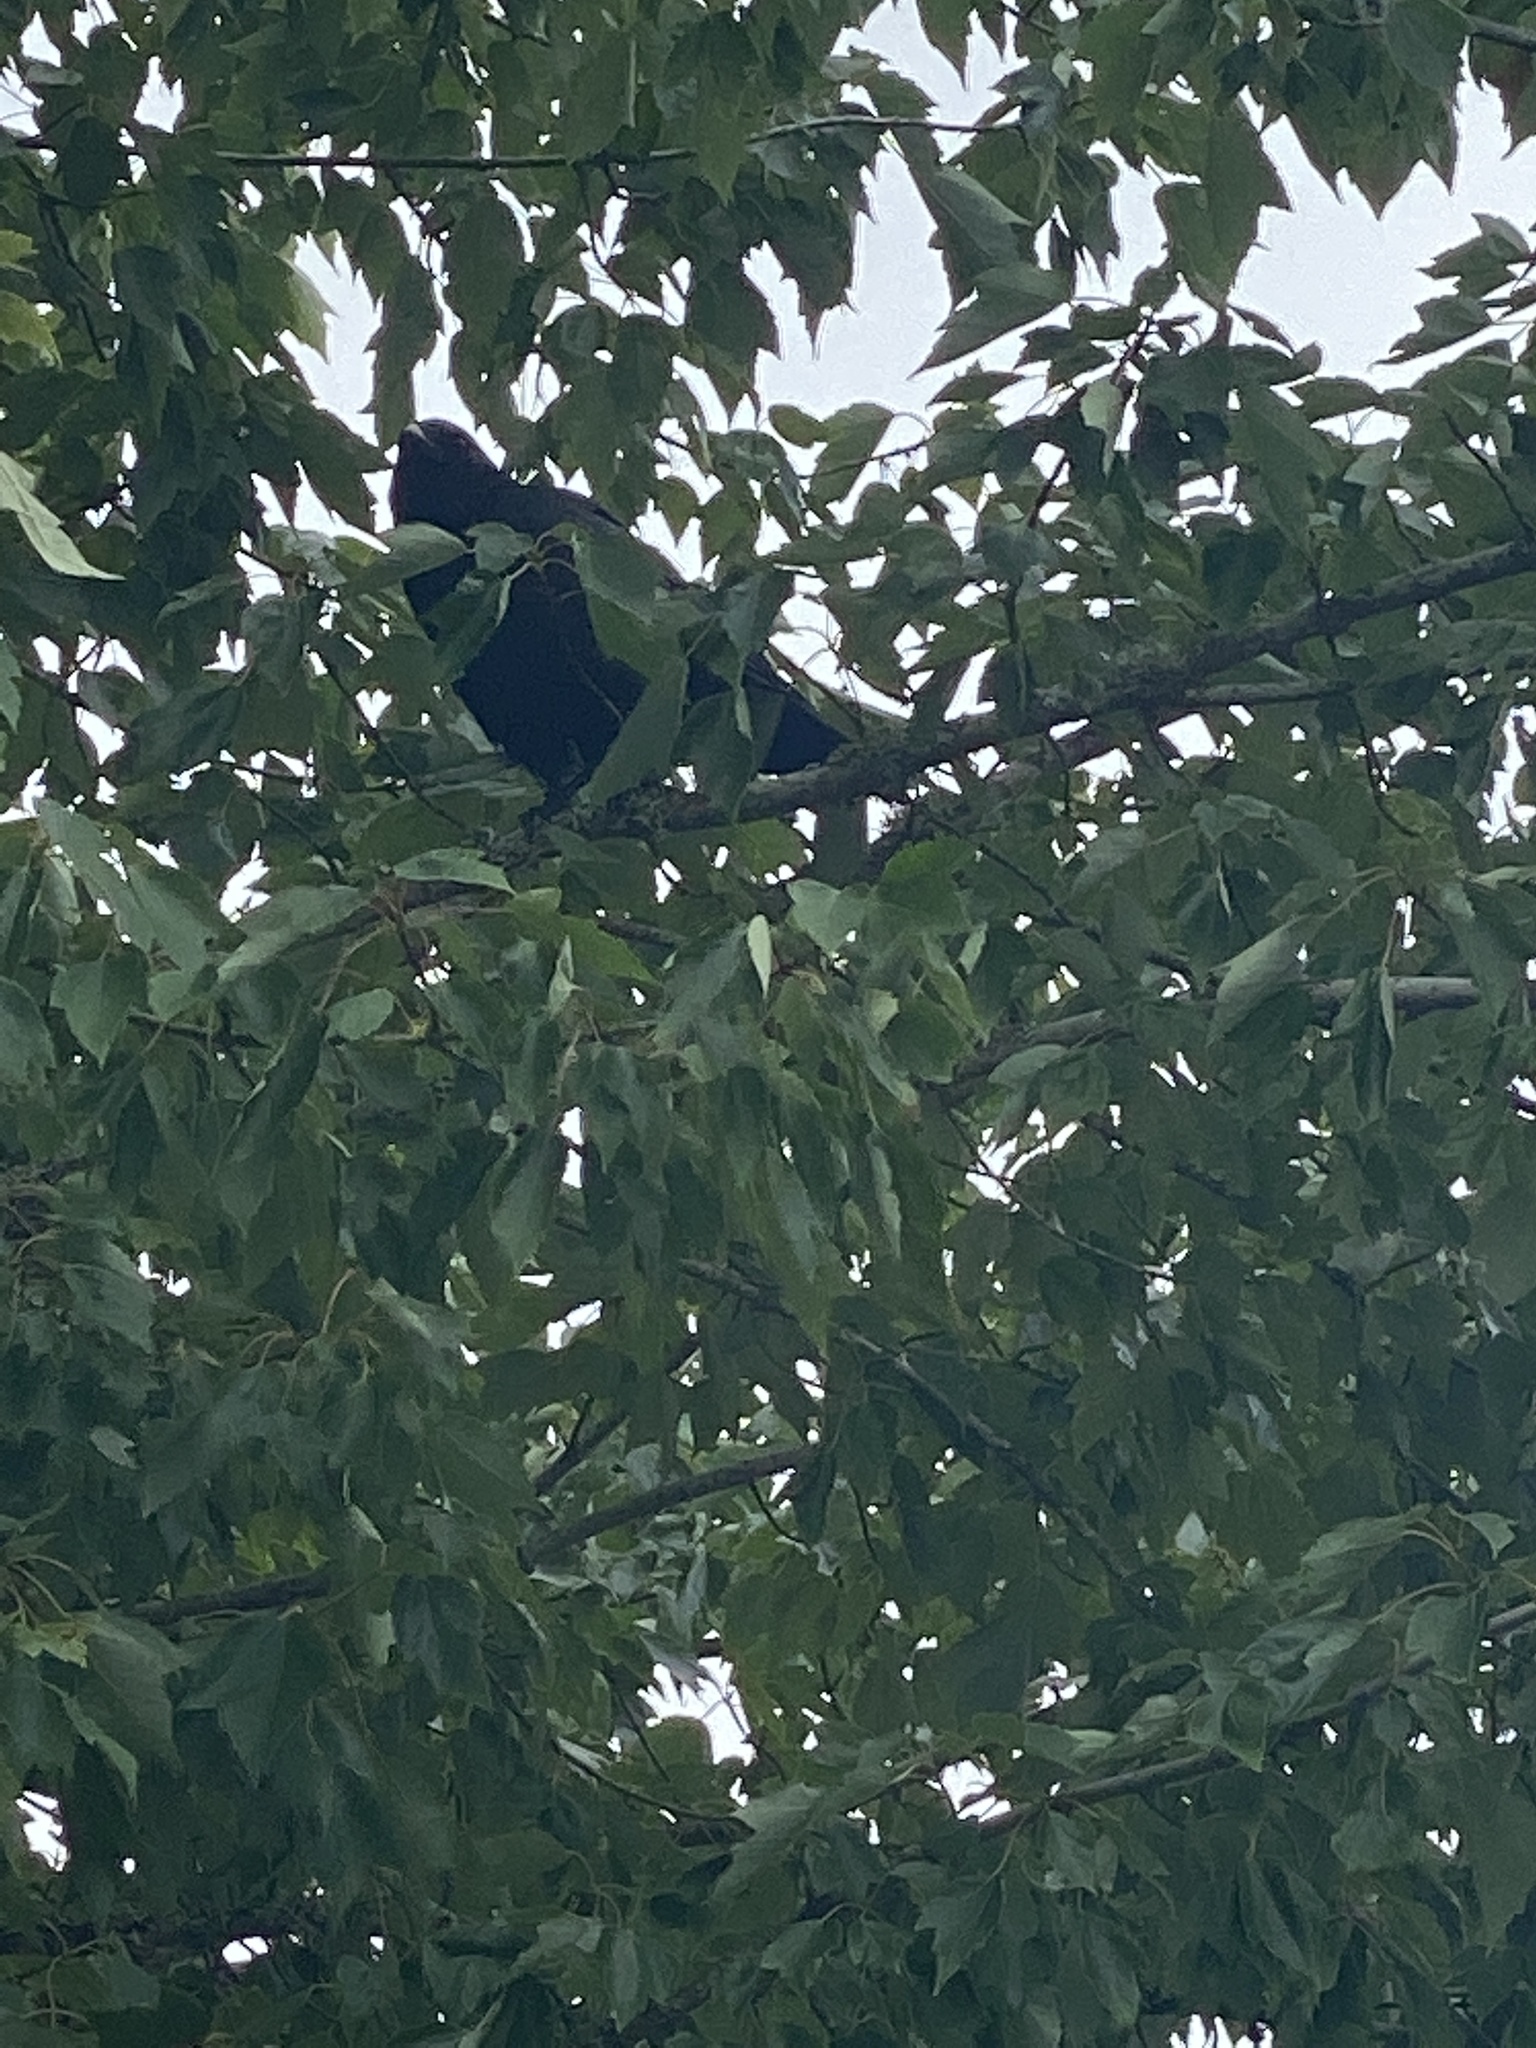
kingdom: Animalia
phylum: Chordata
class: Aves
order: Passeriformes
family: Corvidae
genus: Corvus
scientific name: Corvus brachyrhynchos
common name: American crow
